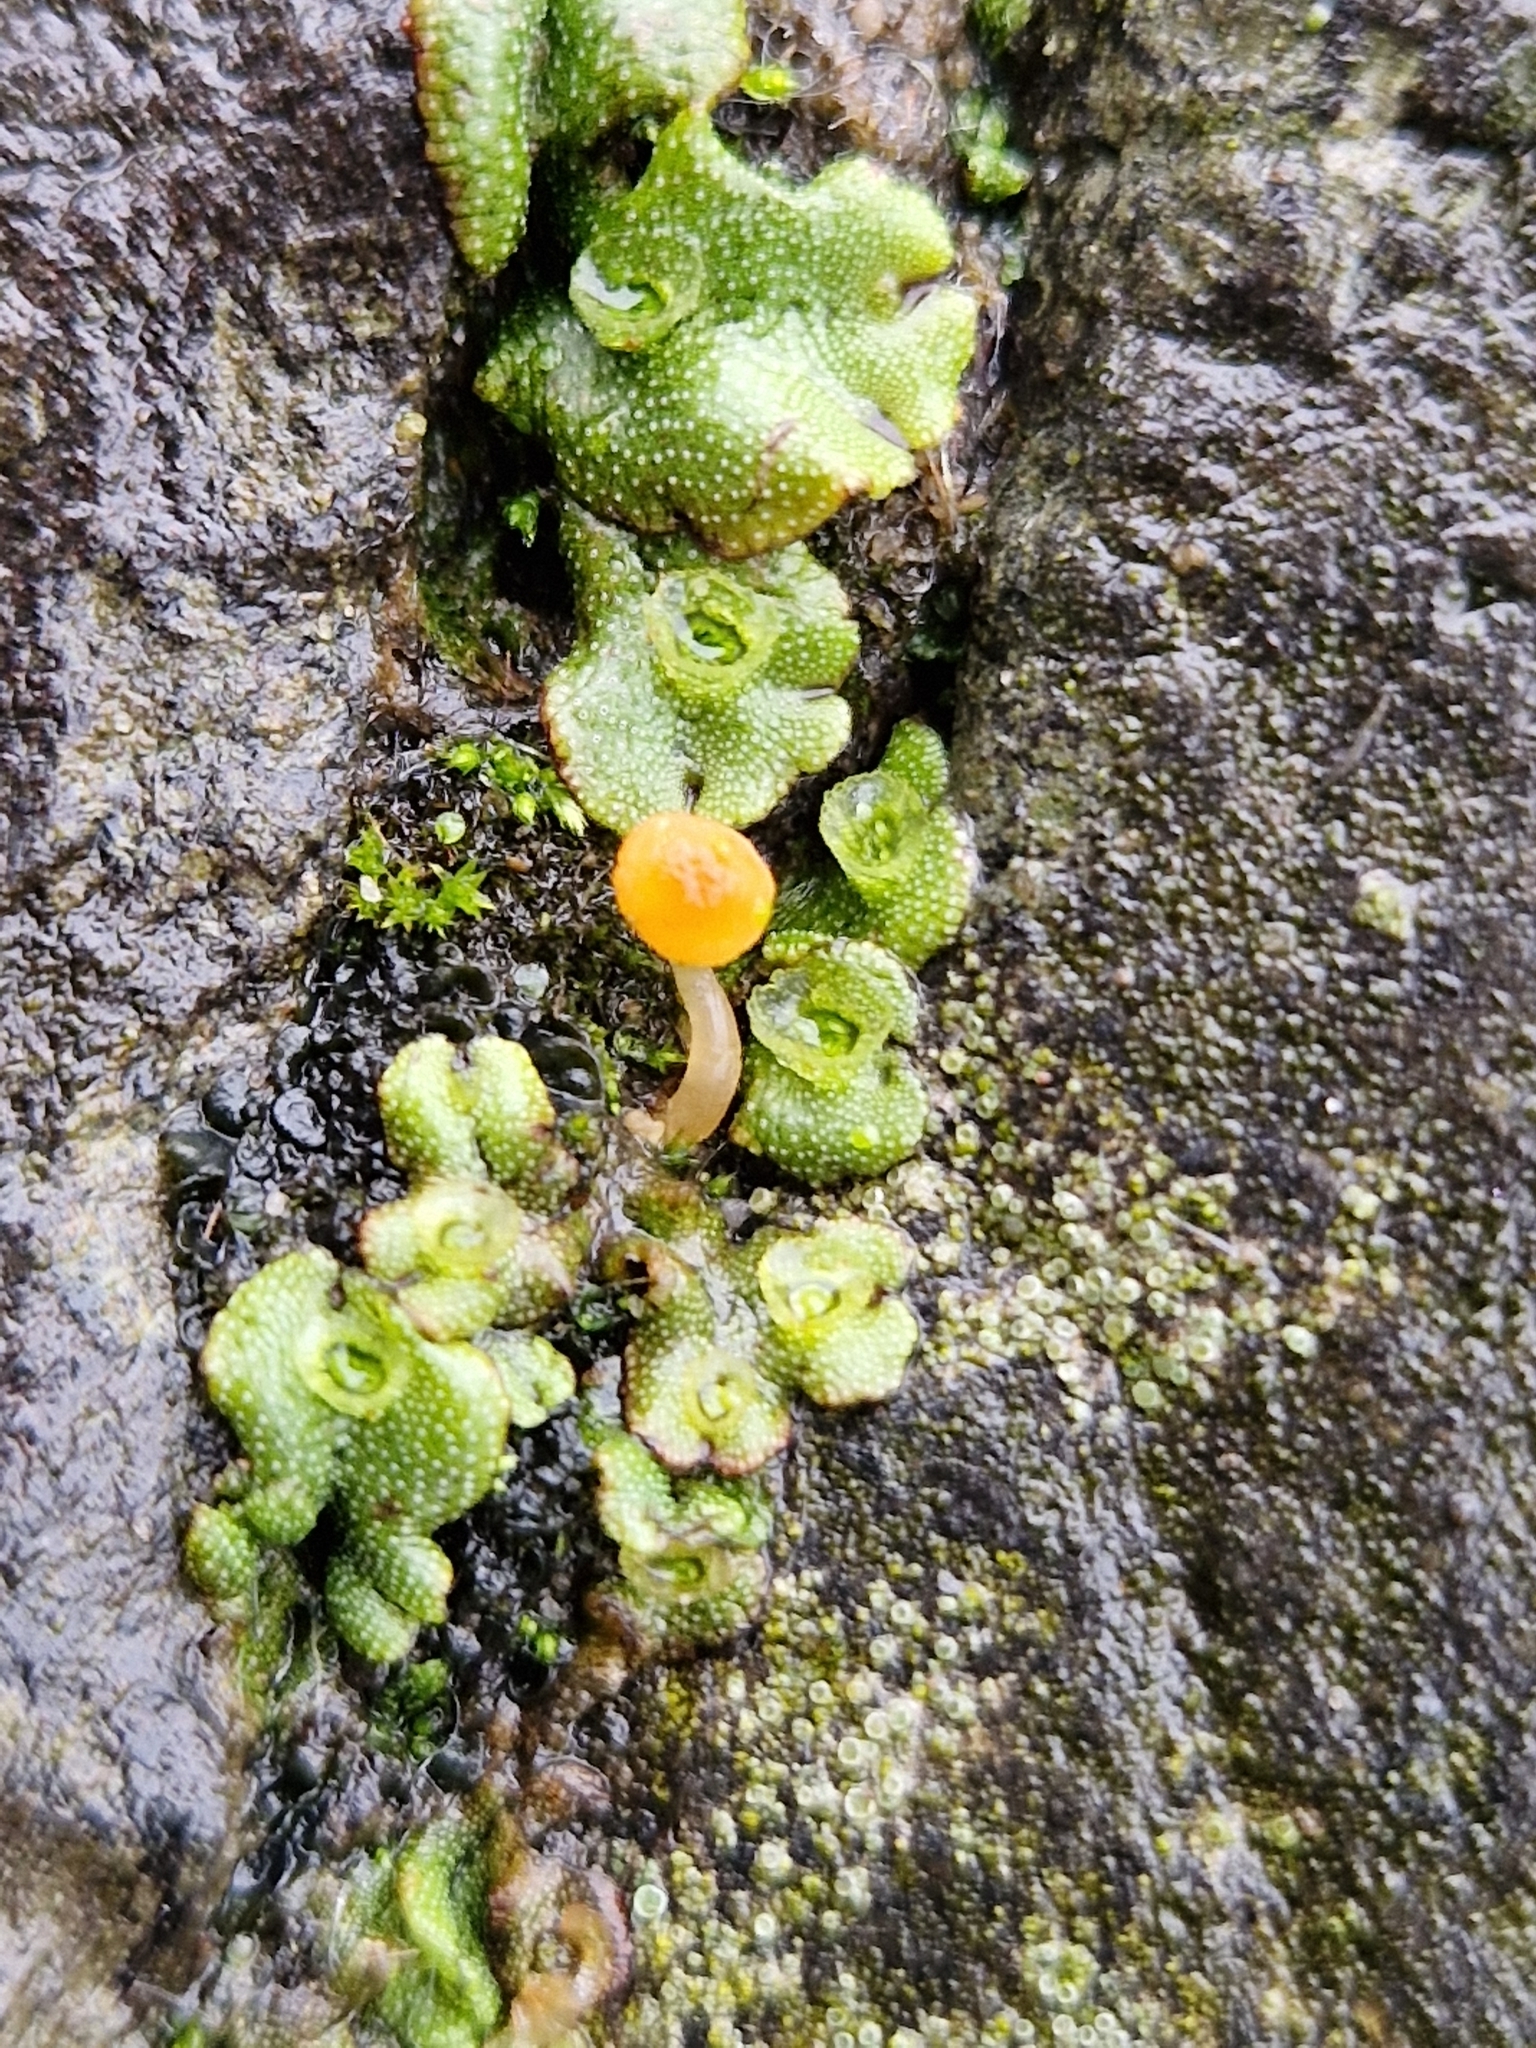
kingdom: Fungi
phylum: Basidiomycota
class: Agaricomycetes
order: Hymenochaetales
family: Rickenellaceae
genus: Loreleia
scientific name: Loreleia marchantiae
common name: Liverwort navel
